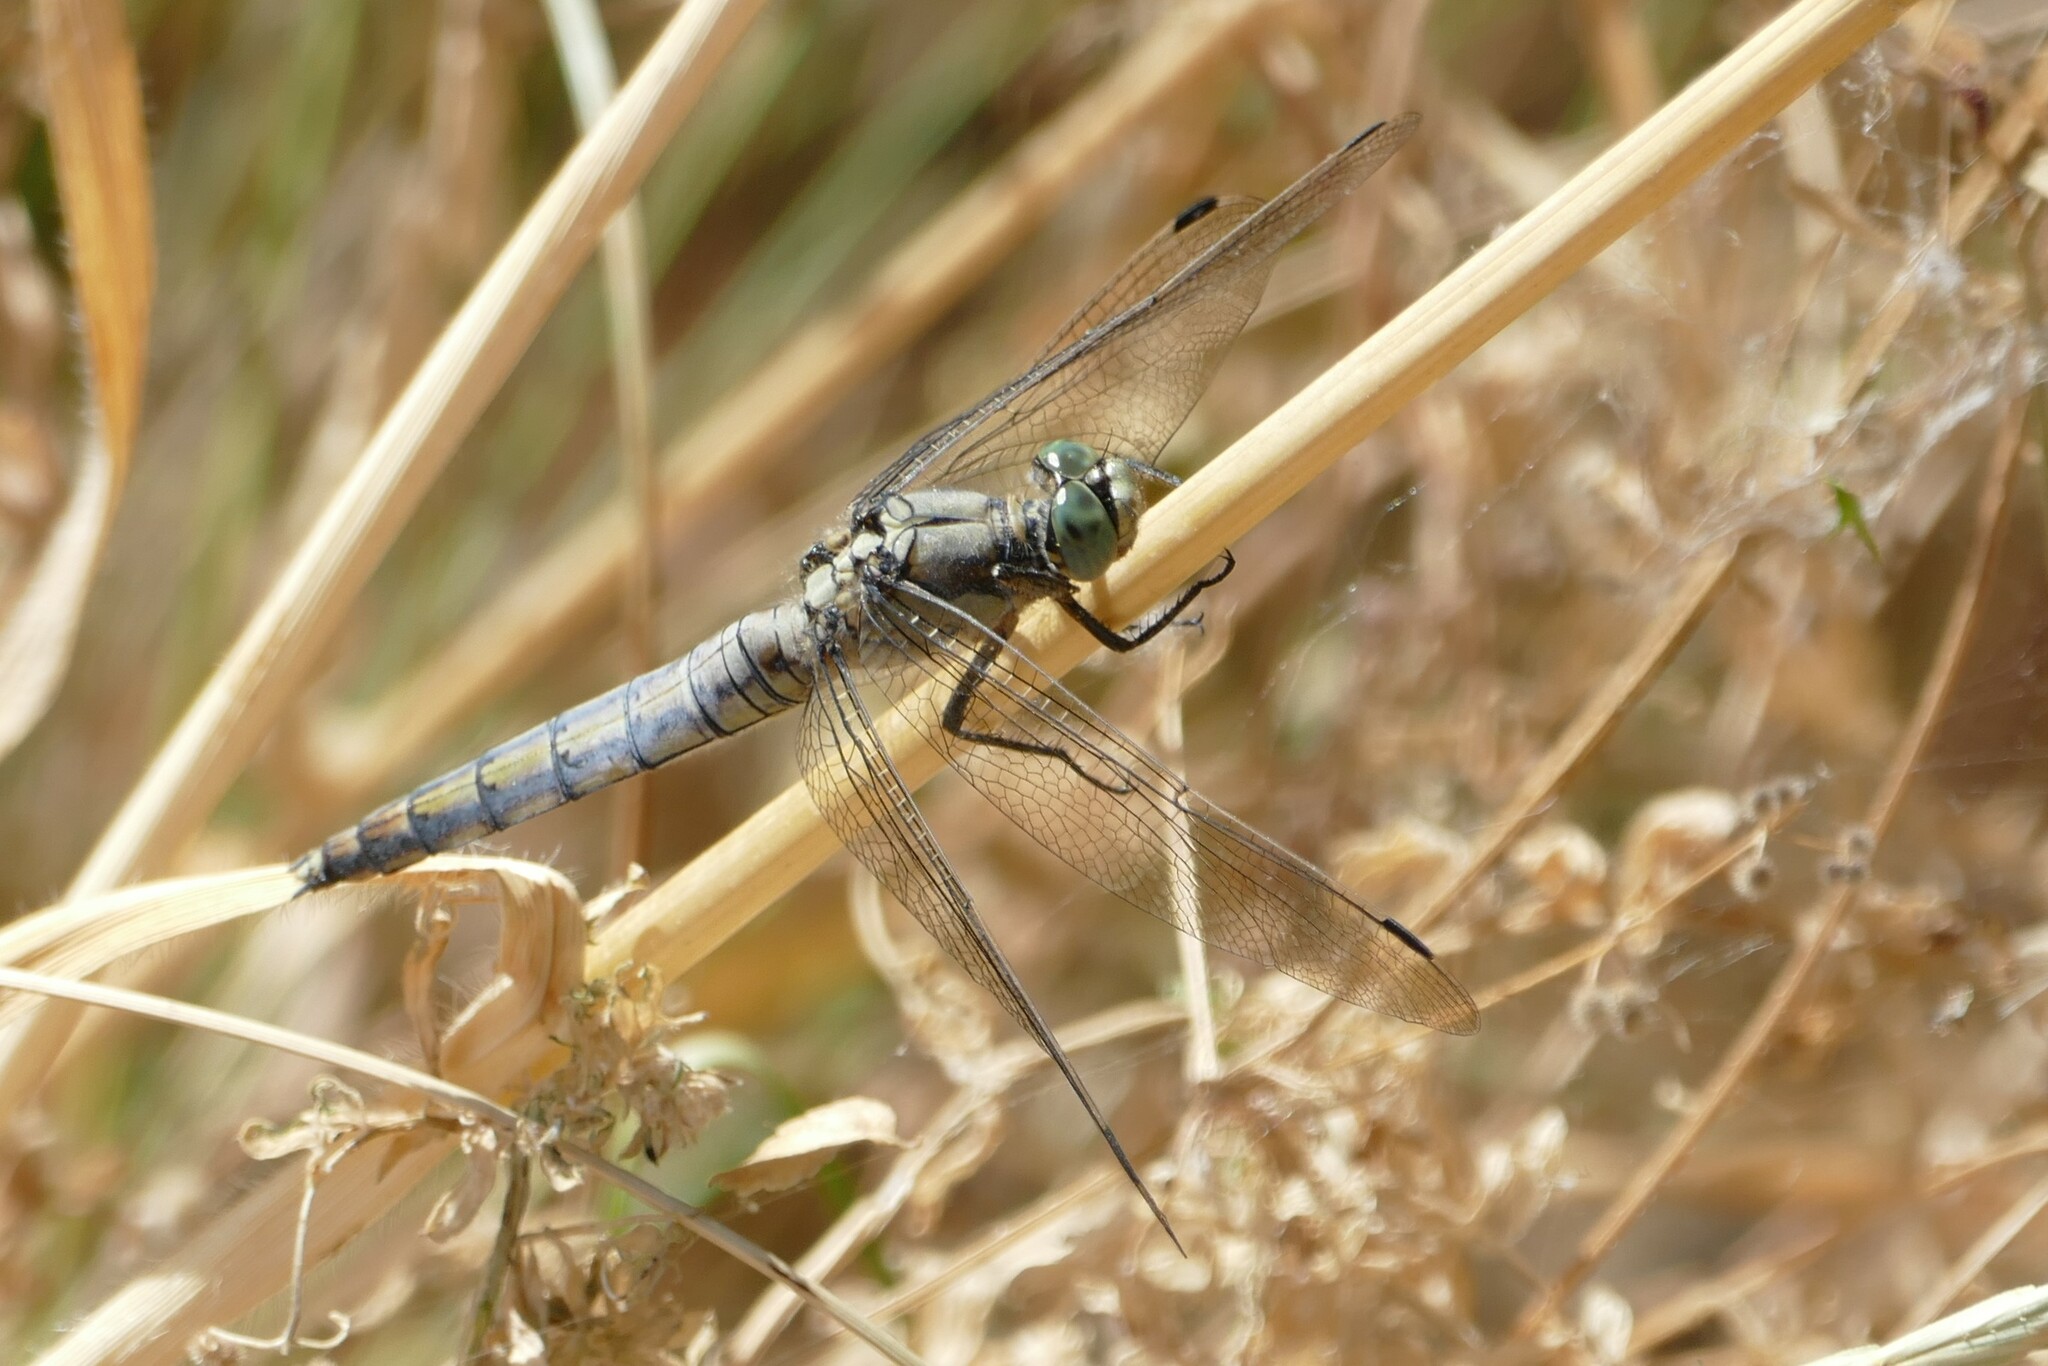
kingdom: Animalia
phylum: Arthropoda
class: Insecta
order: Odonata
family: Libellulidae
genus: Orthetrum
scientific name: Orthetrum cancellatum
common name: Black-tailed skimmer
